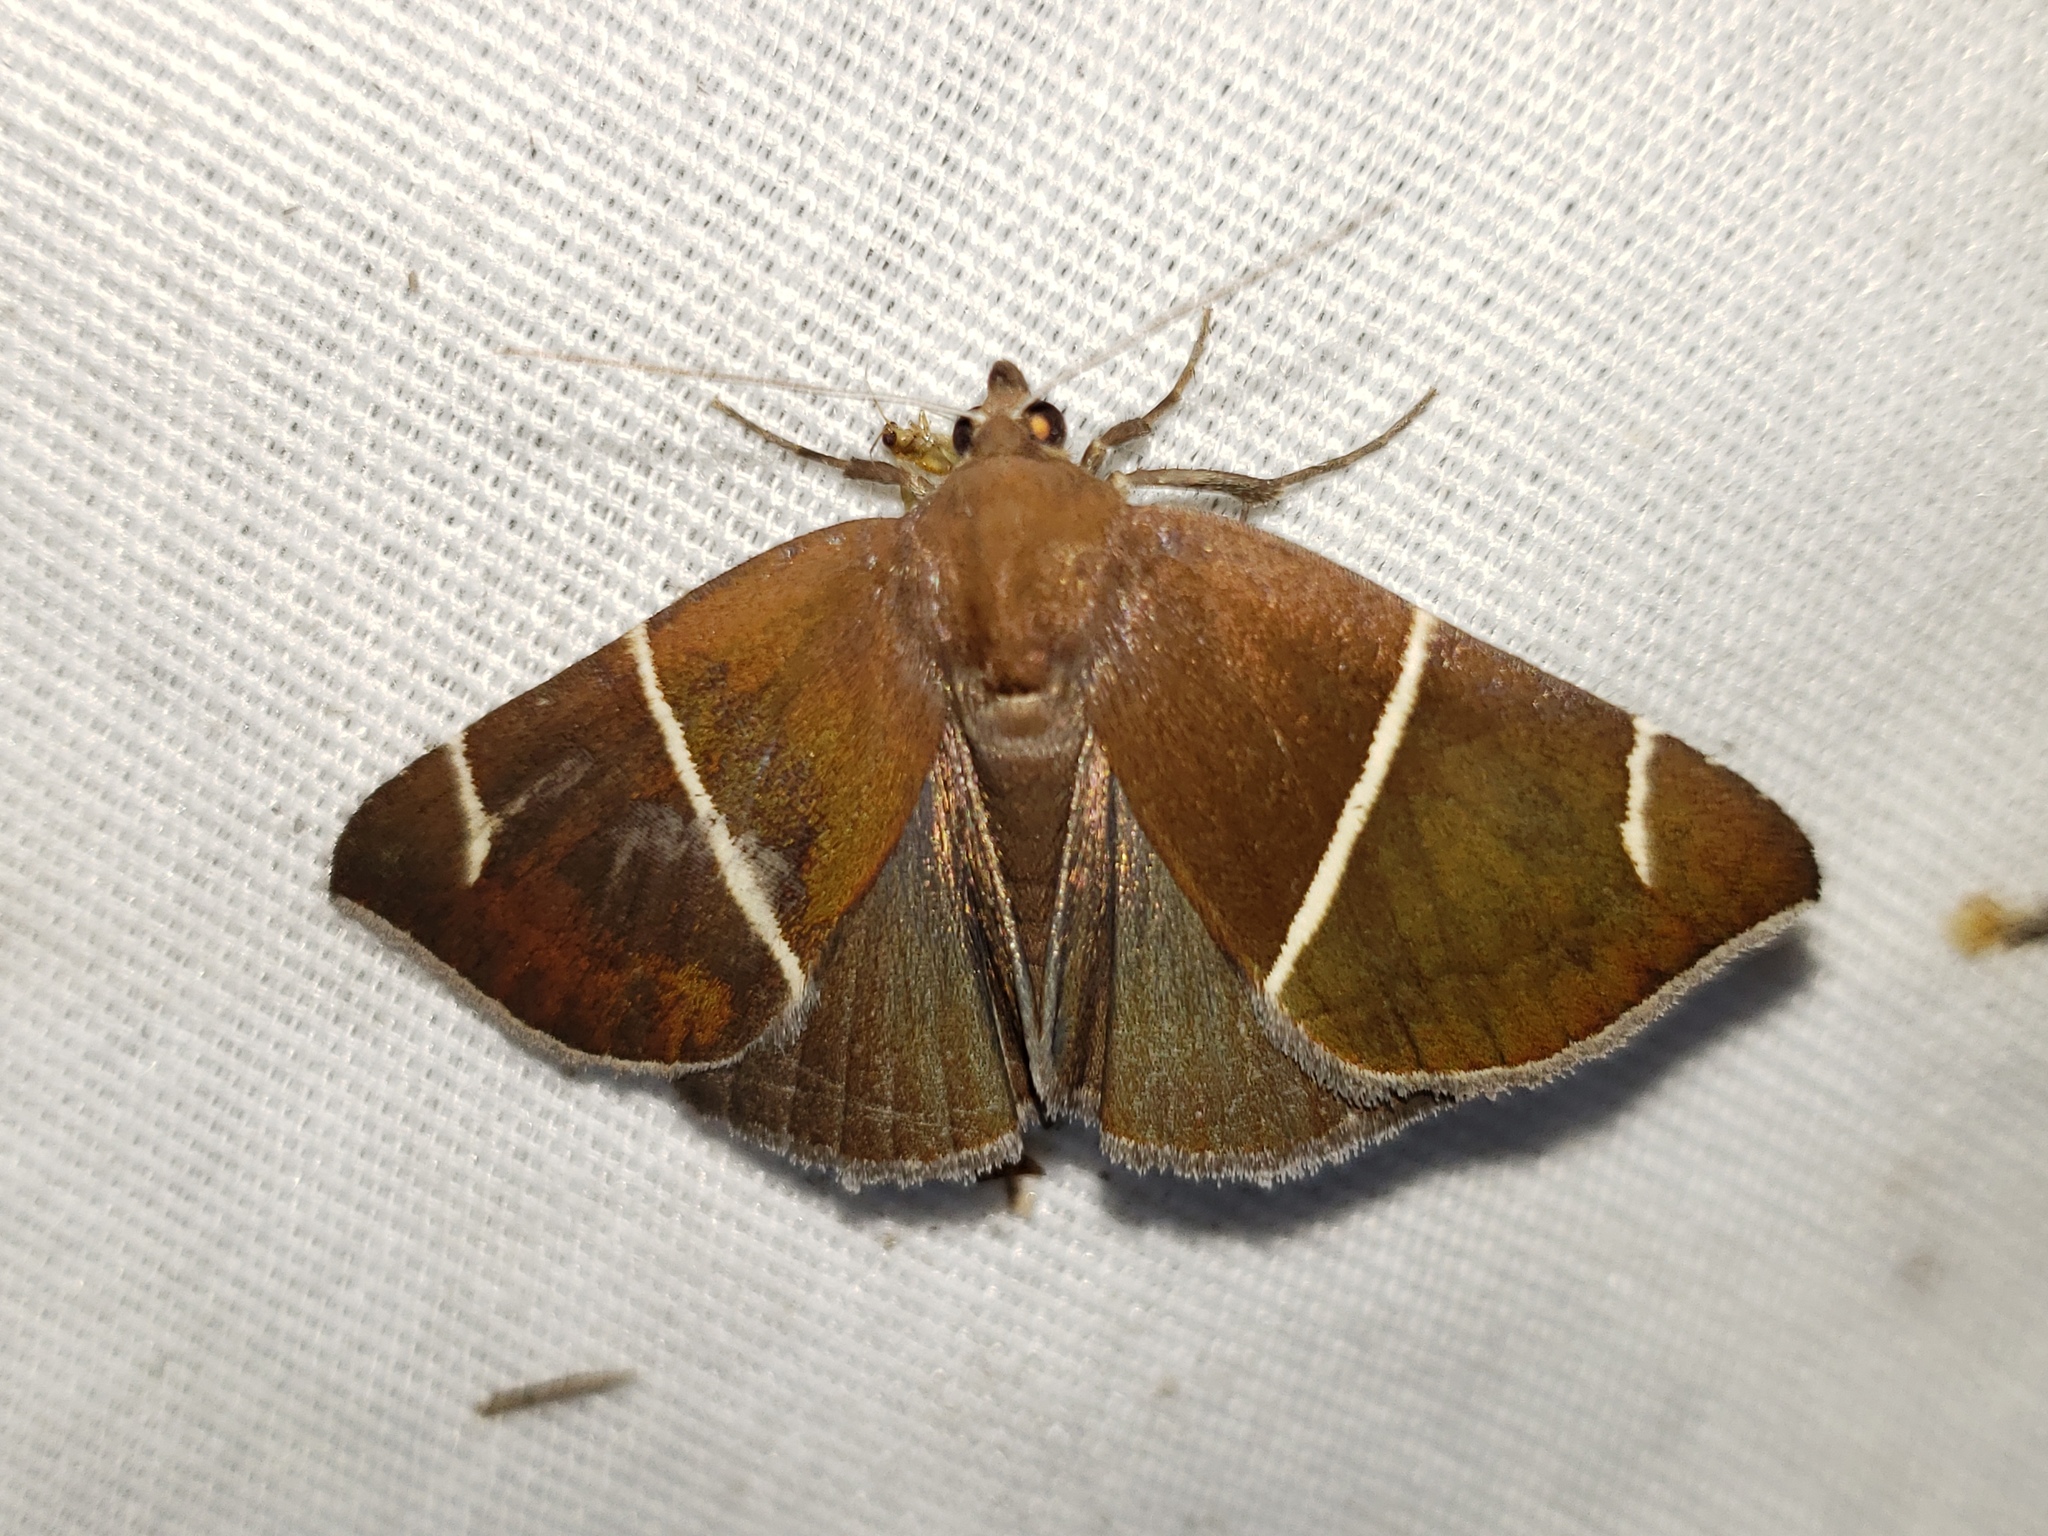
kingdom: Animalia
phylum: Arthropoda
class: Insecta
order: Lepidoptera
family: Erebidae
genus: Argyrostrotis
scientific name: Argyrostrotis anilis
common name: Short-lined chocolate
